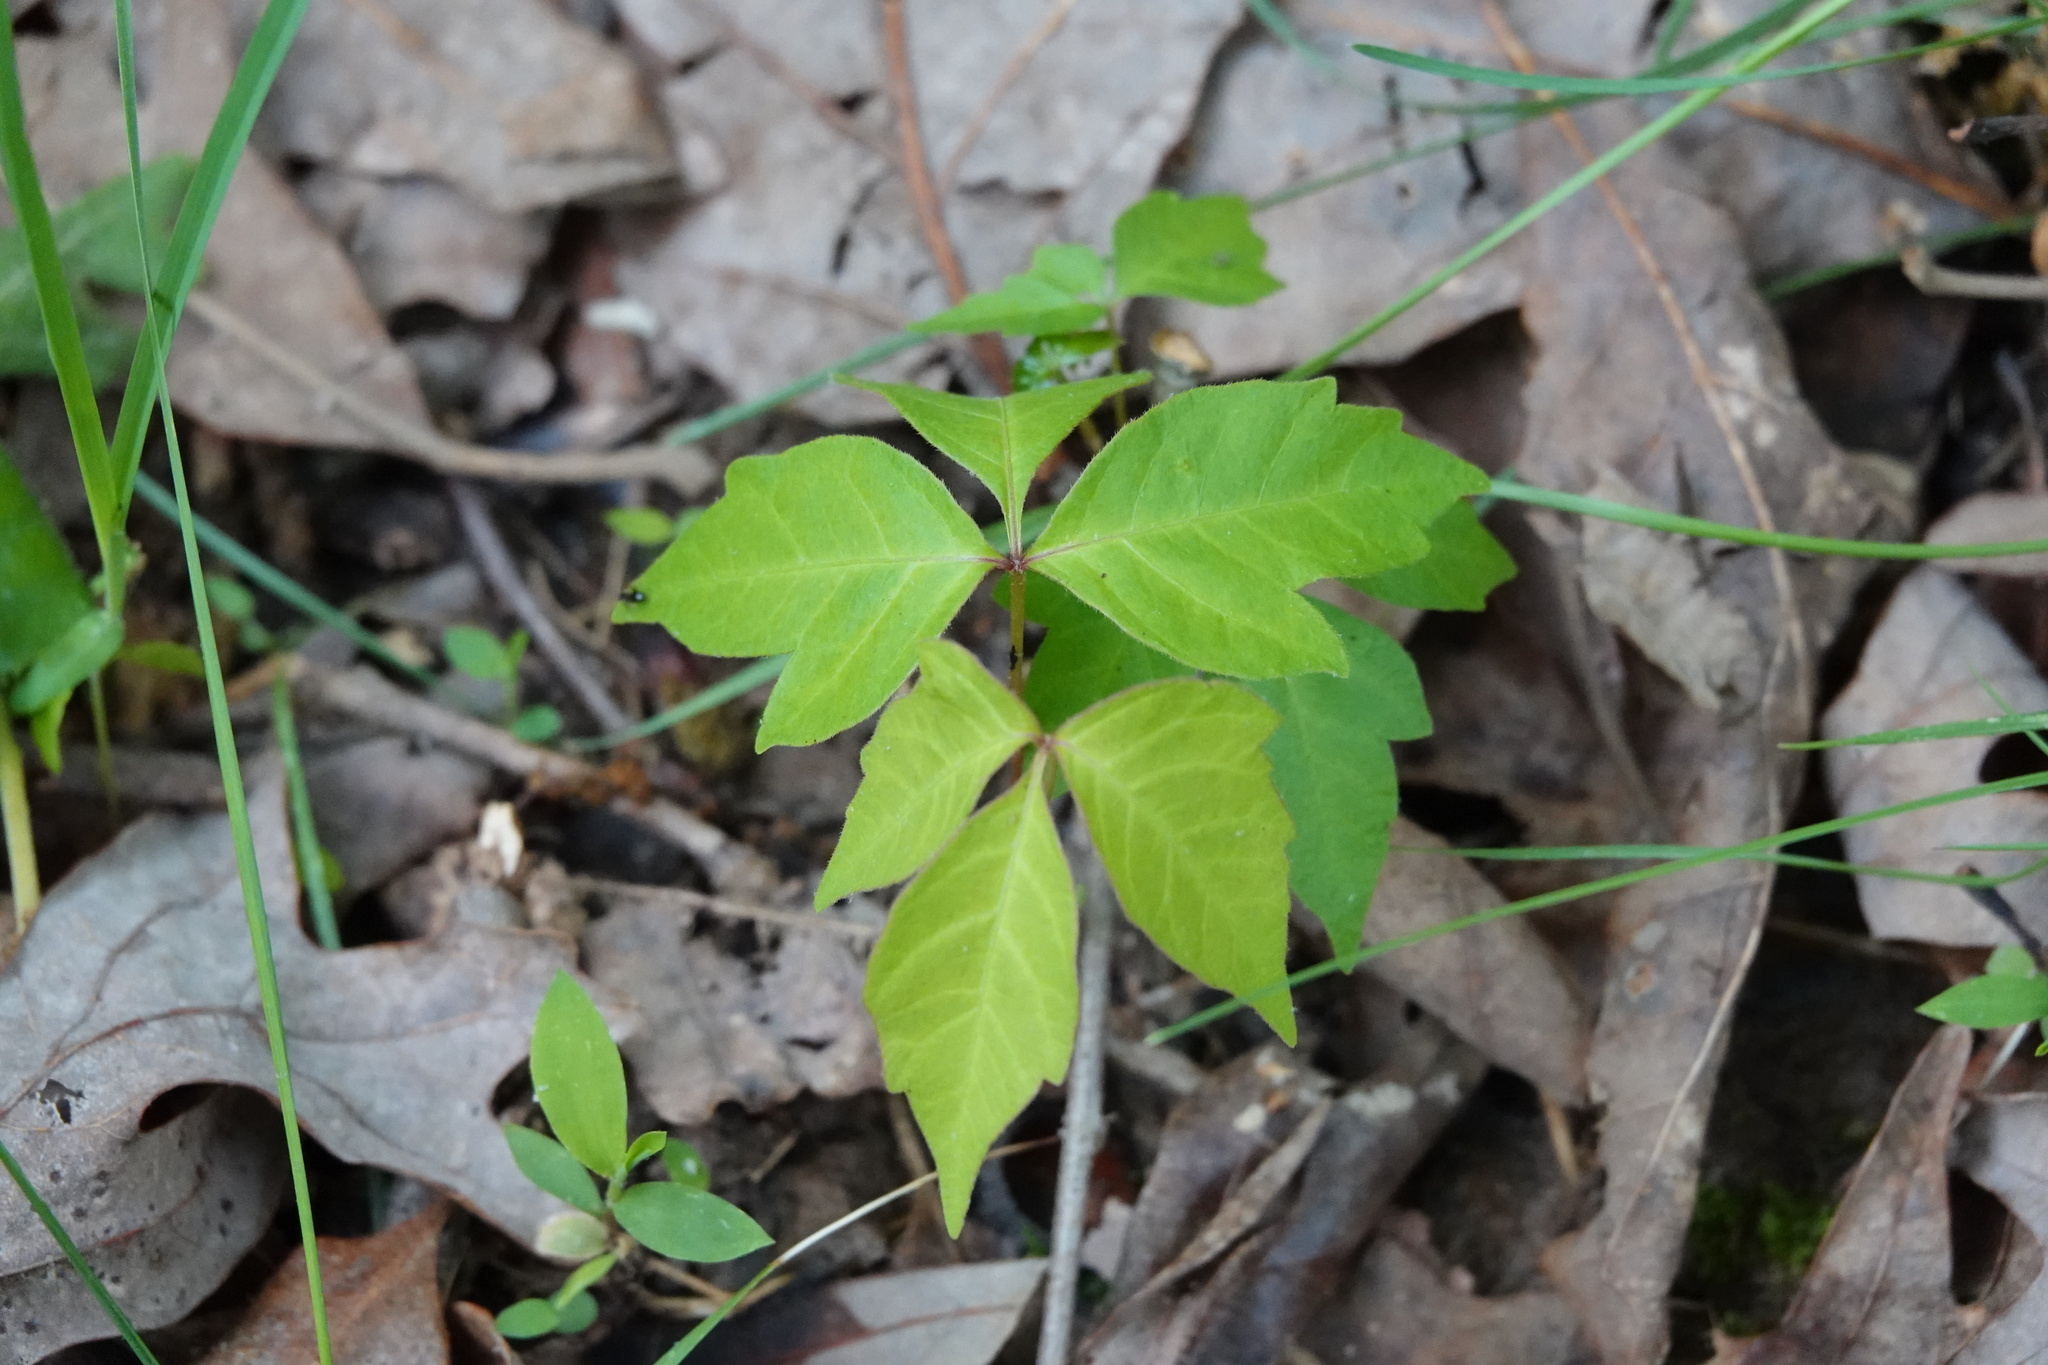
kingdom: Plantae
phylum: Tracheophyta
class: Magnoliopsida
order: Sapindales
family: Anacardiaceae
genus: Toxicodendron
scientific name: Toxicodendron radicans
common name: Poison ivy
